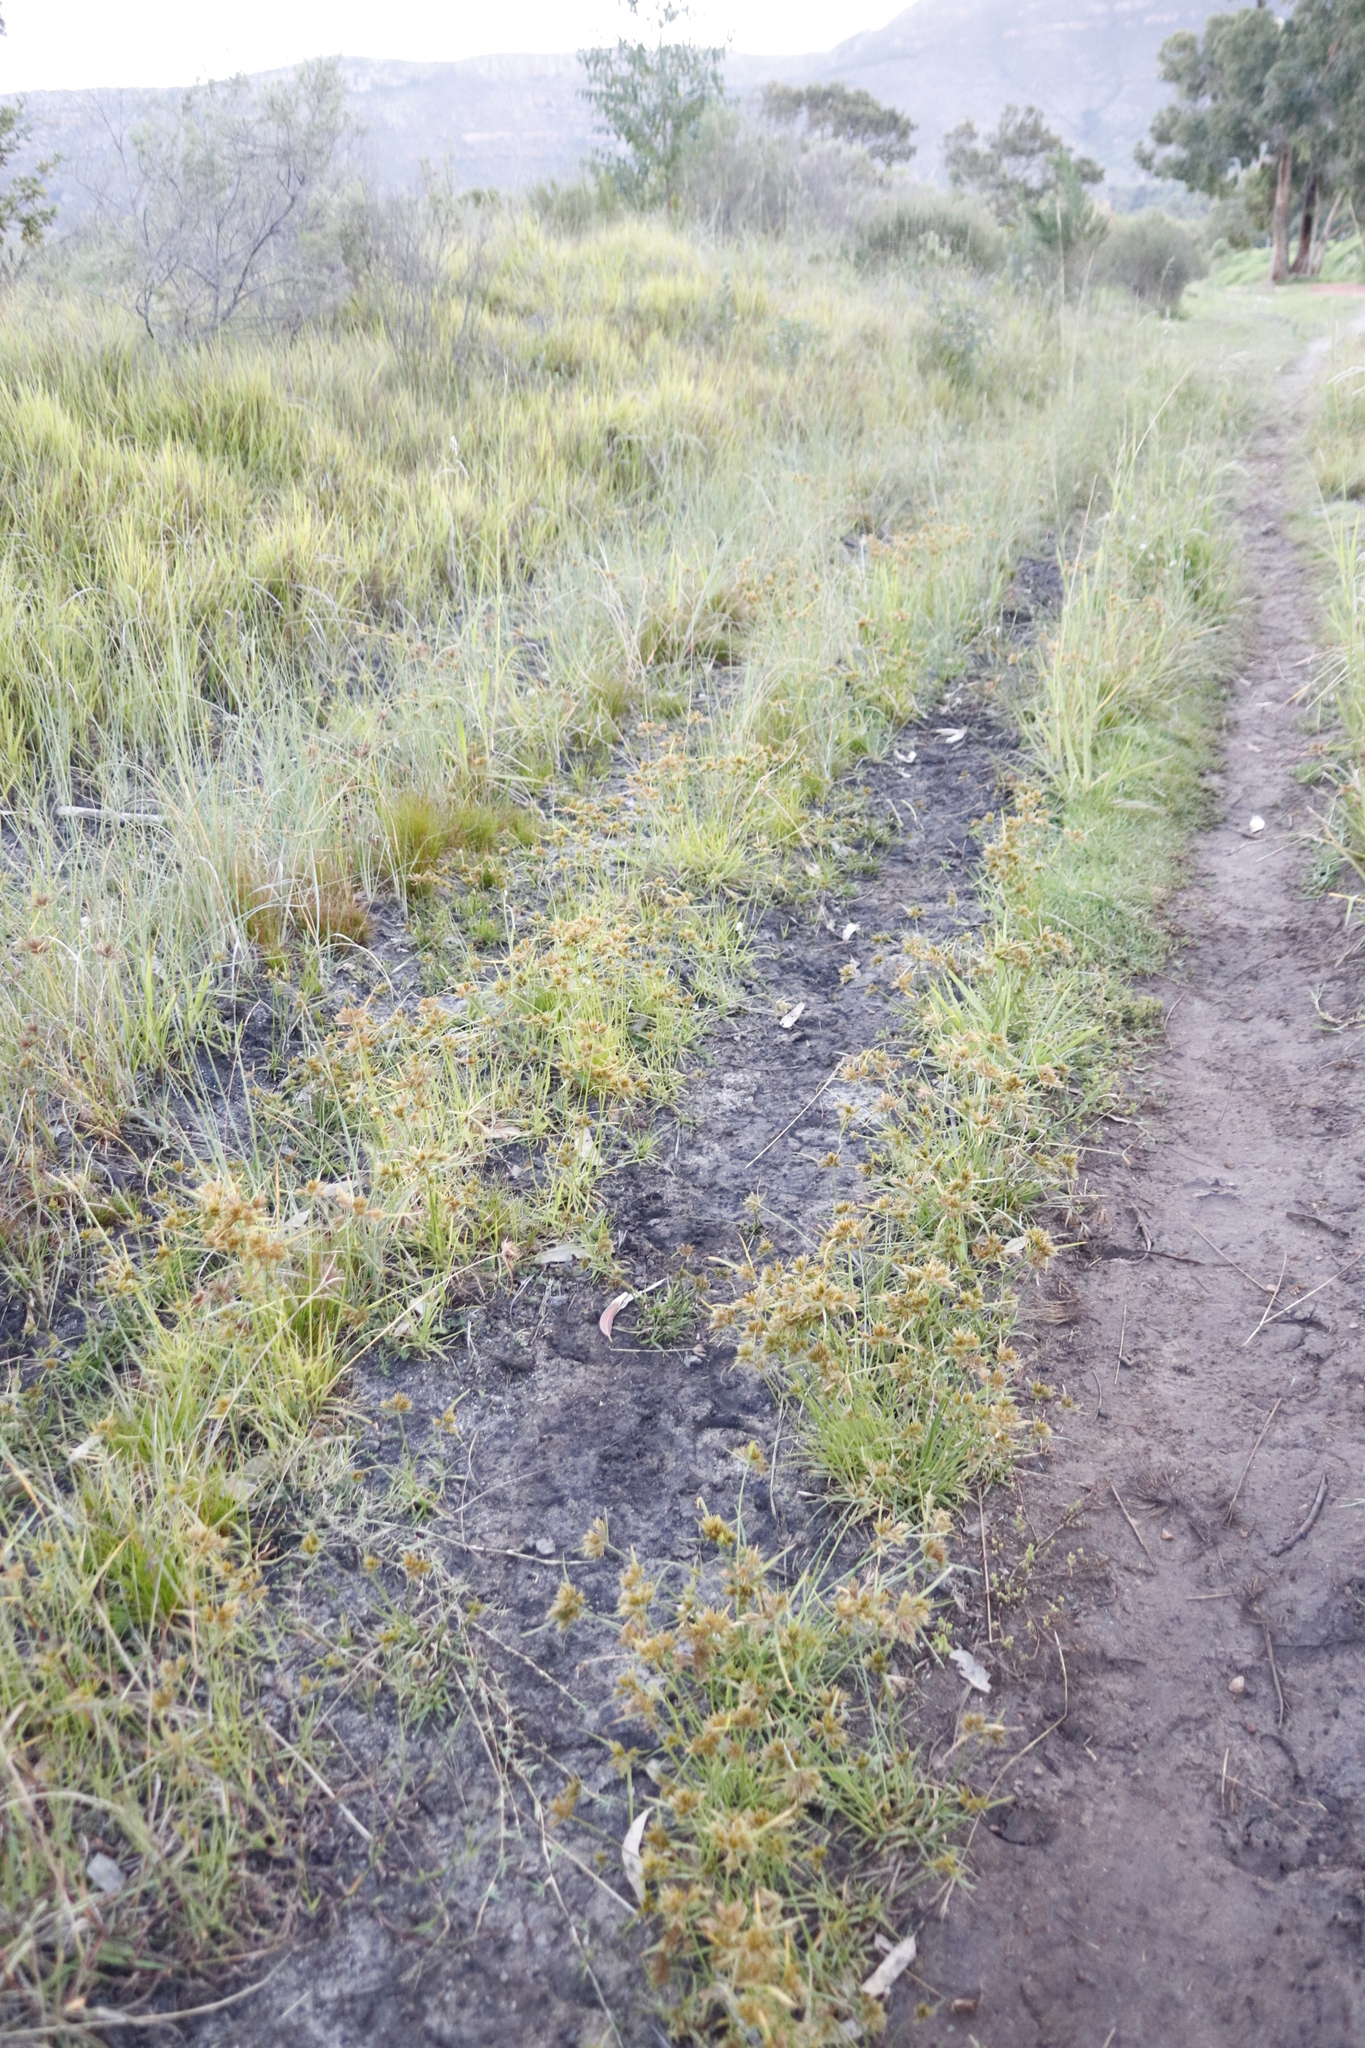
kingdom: Plantae
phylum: Tracheophyta
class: Liliopsida
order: Poales
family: Cyperaceae
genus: Cyperus
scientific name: Cyperus polystachyos
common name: Bunchy flat sedge
